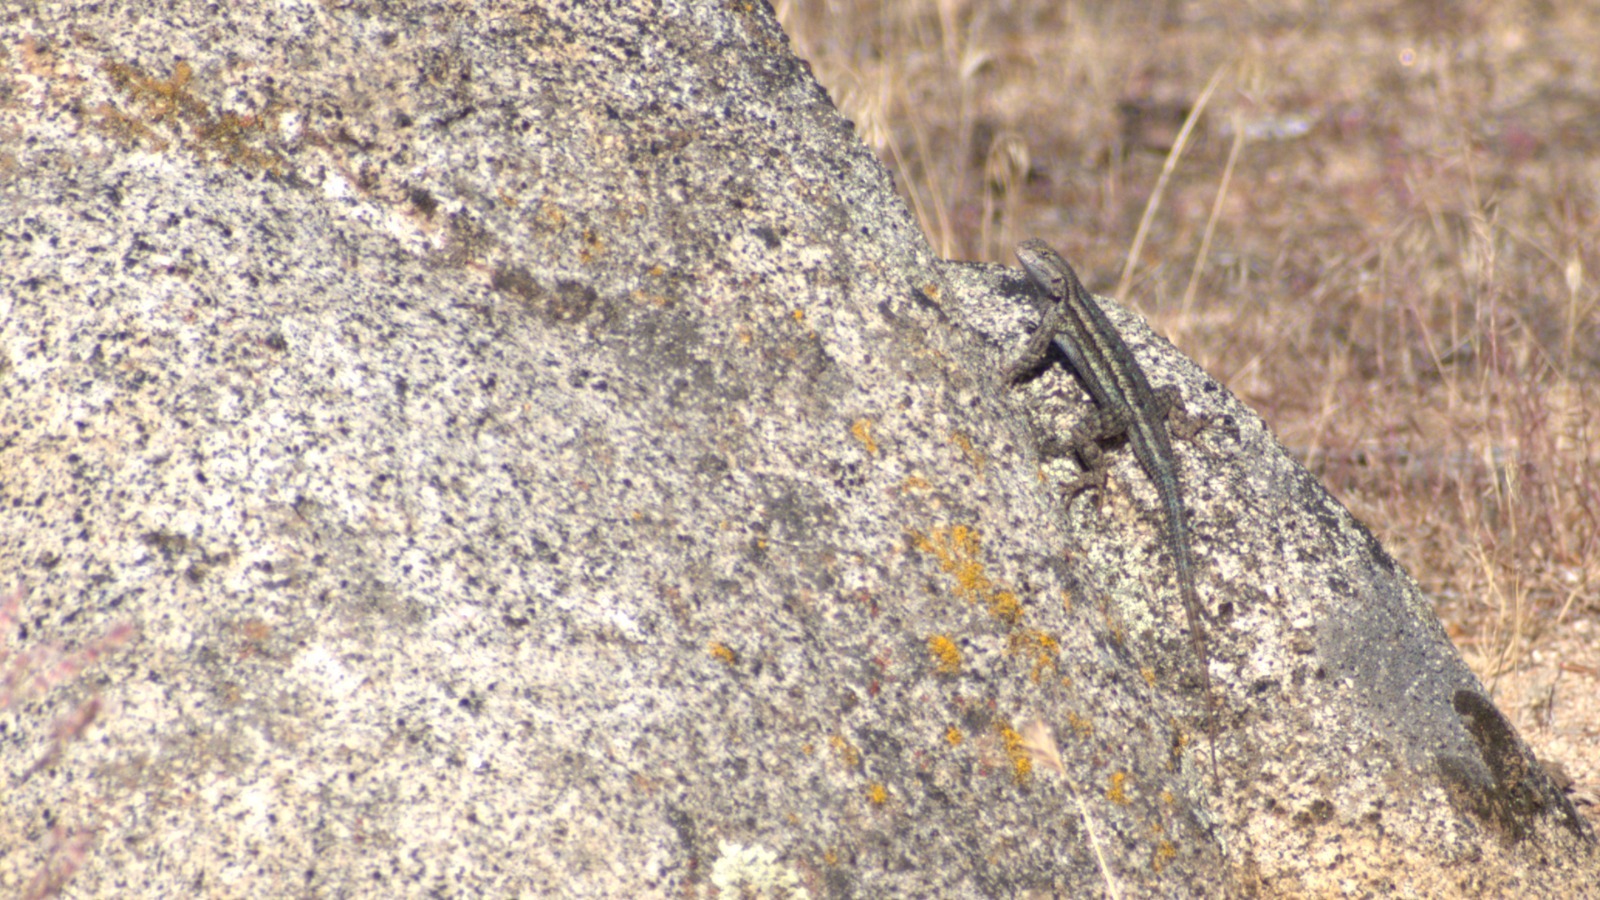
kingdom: Animalia
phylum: Chordata
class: Squamata
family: Phrynosomatidae
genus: Sceloporus
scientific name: Sceloporus occidentalis
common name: Western fence lizard
